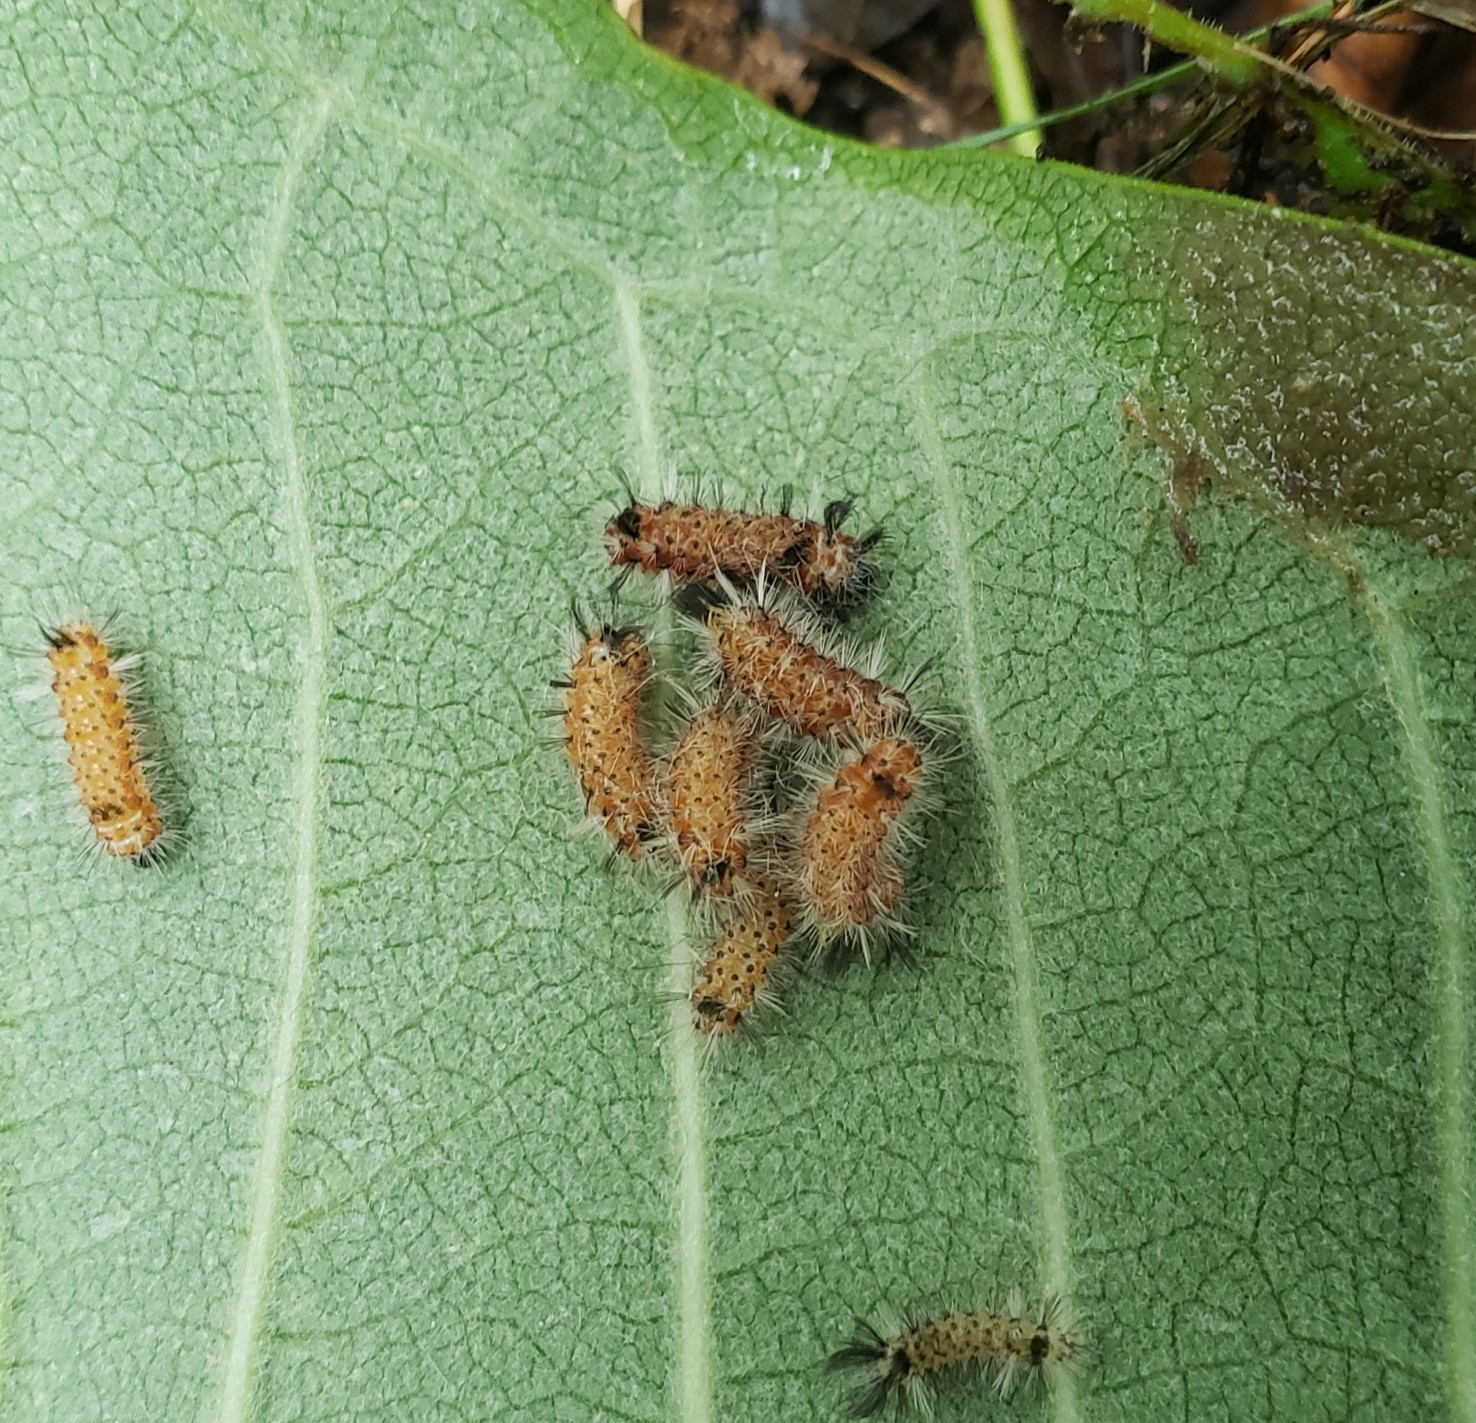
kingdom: Animalia
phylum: Arthropoda
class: Insecta
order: Lepidoptera
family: Erebidae
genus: Euchaetes
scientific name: Euchaetes egle
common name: Milkweed tussock moth
